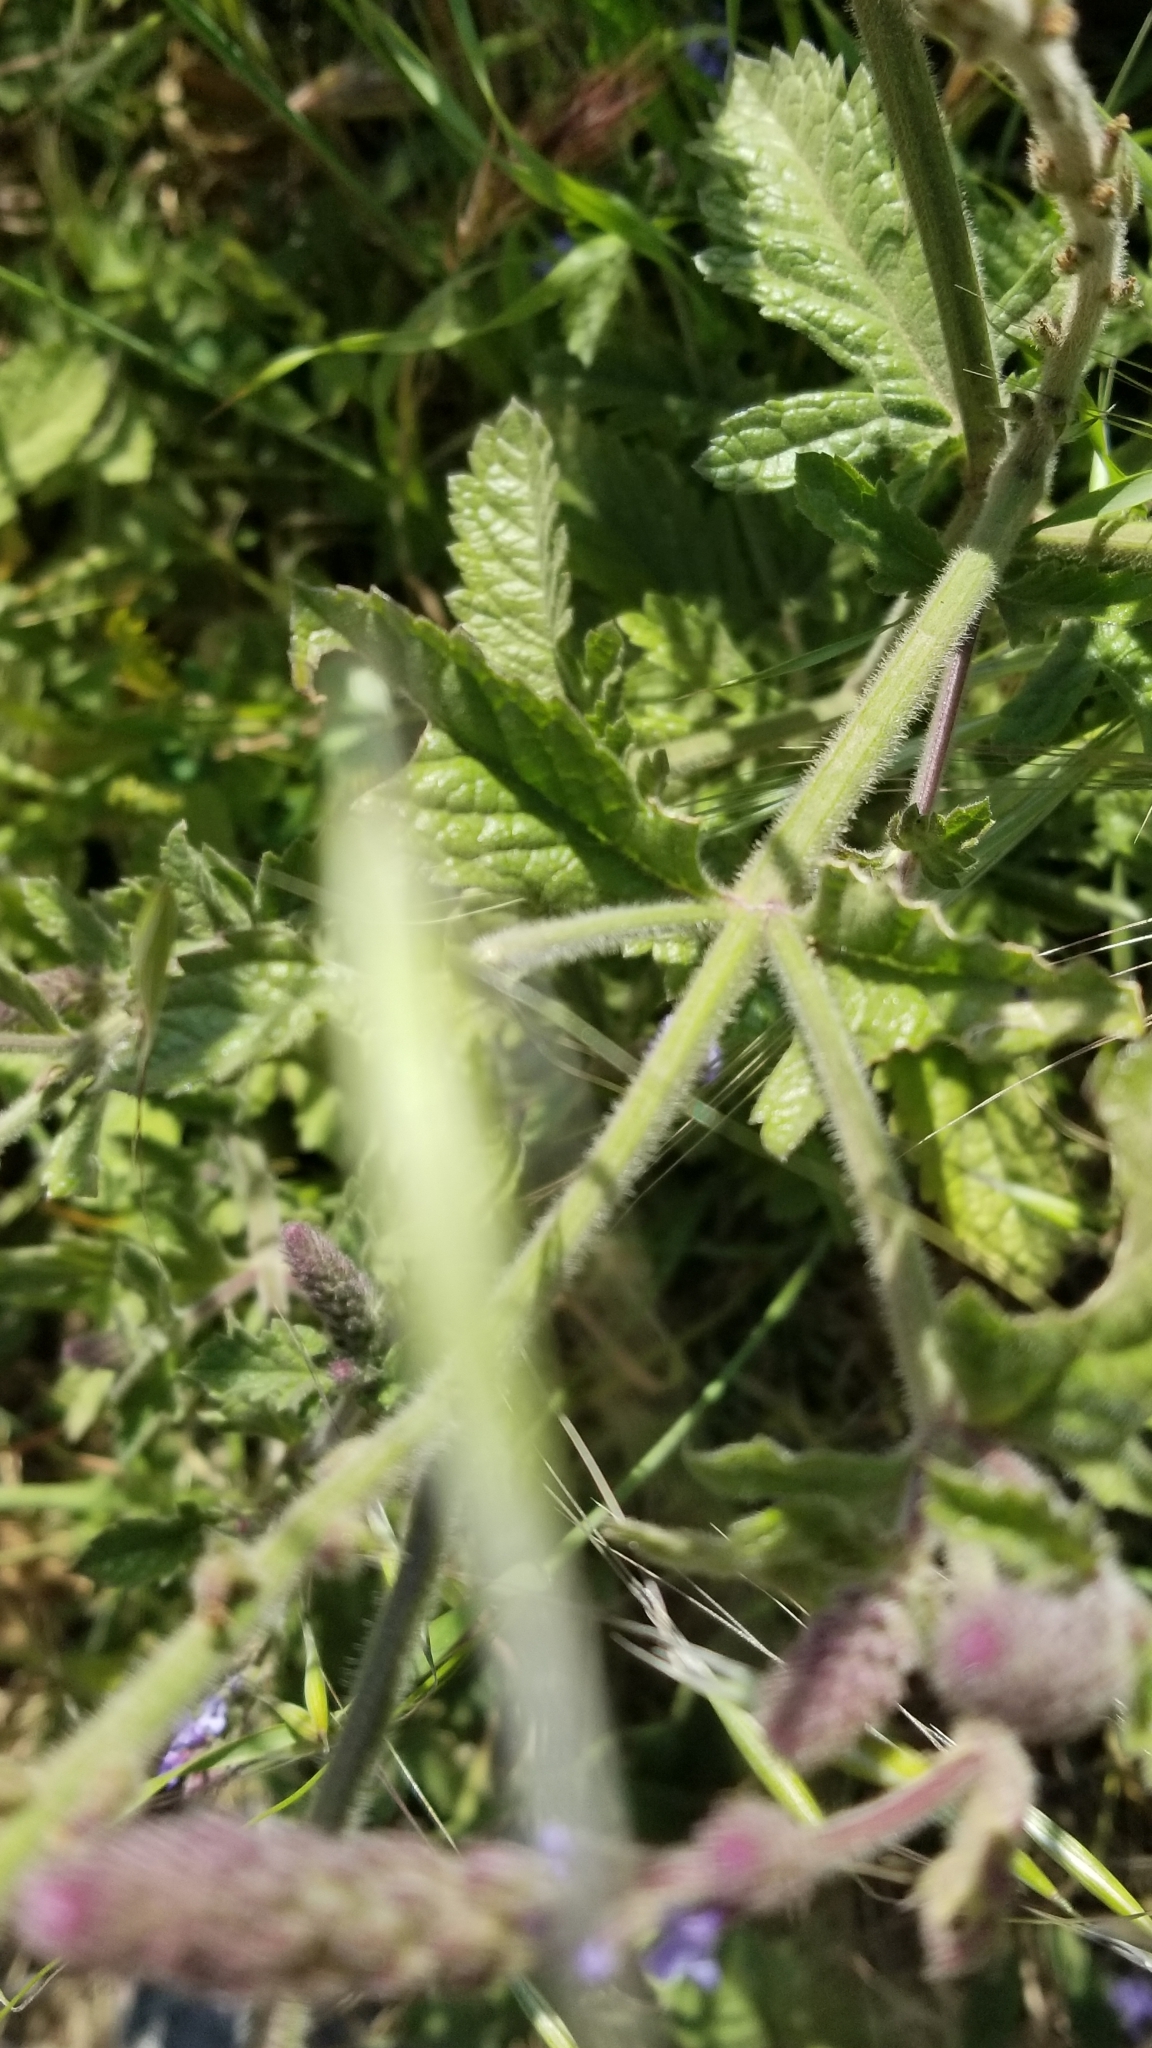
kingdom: Plantae
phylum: Tracheophyta
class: Magnoliopsida
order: Lamiales
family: Verbenaceae
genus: Verbena
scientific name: Verbena lasiostachys
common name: Vervain
